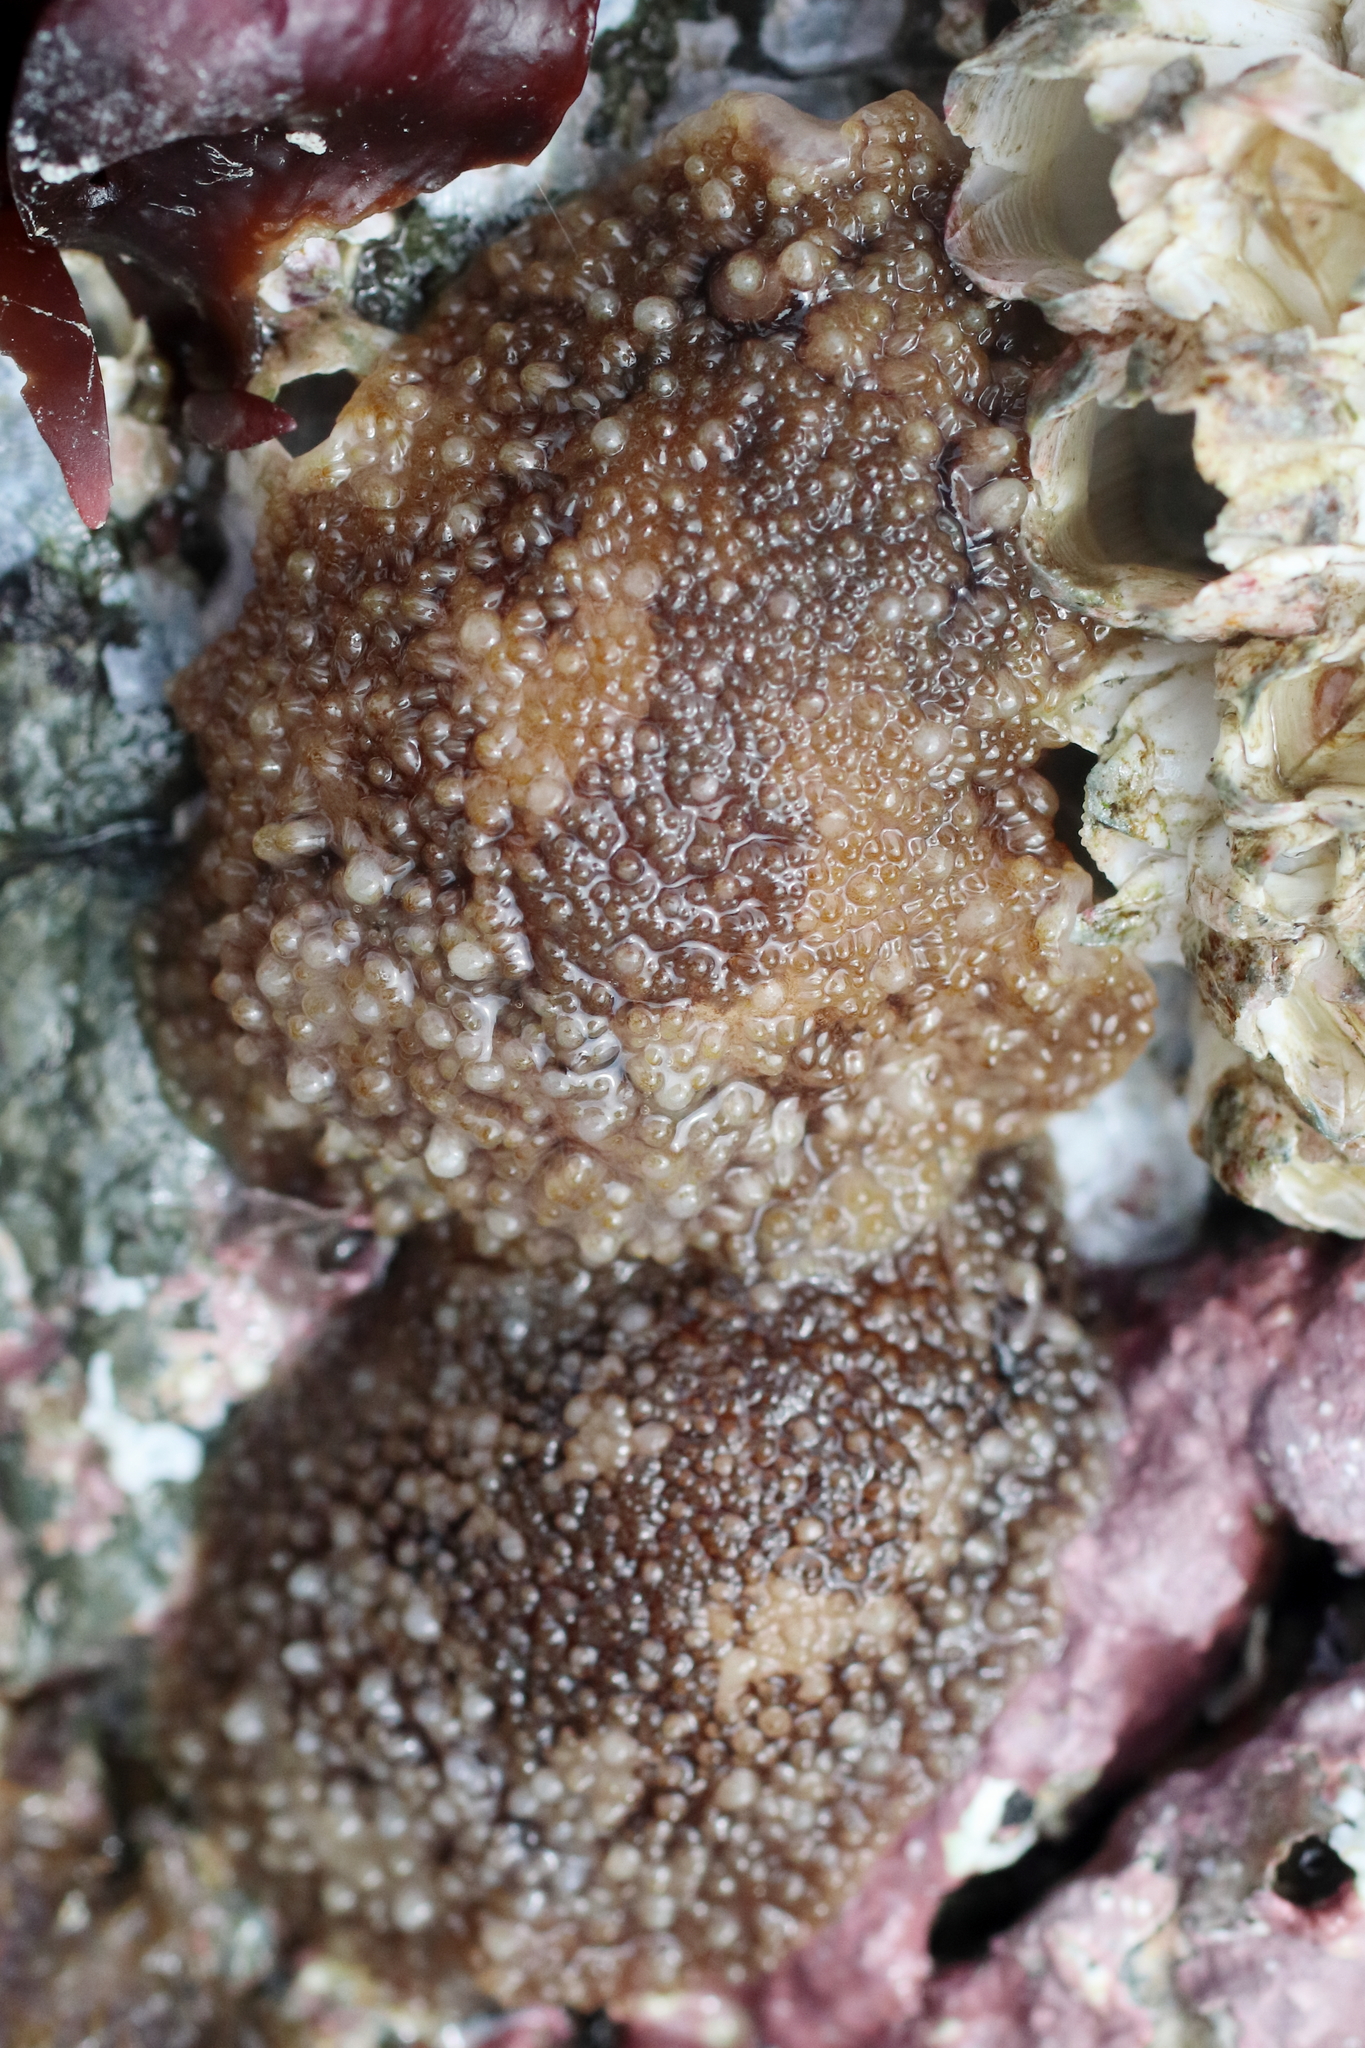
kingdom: Animalia
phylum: Mollusca
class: Gastropoda
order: Nudibranchia
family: Onchidorididae
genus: Onchidoris
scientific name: Onchidoris bilamellata
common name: Barnacle-eating onchidoris
